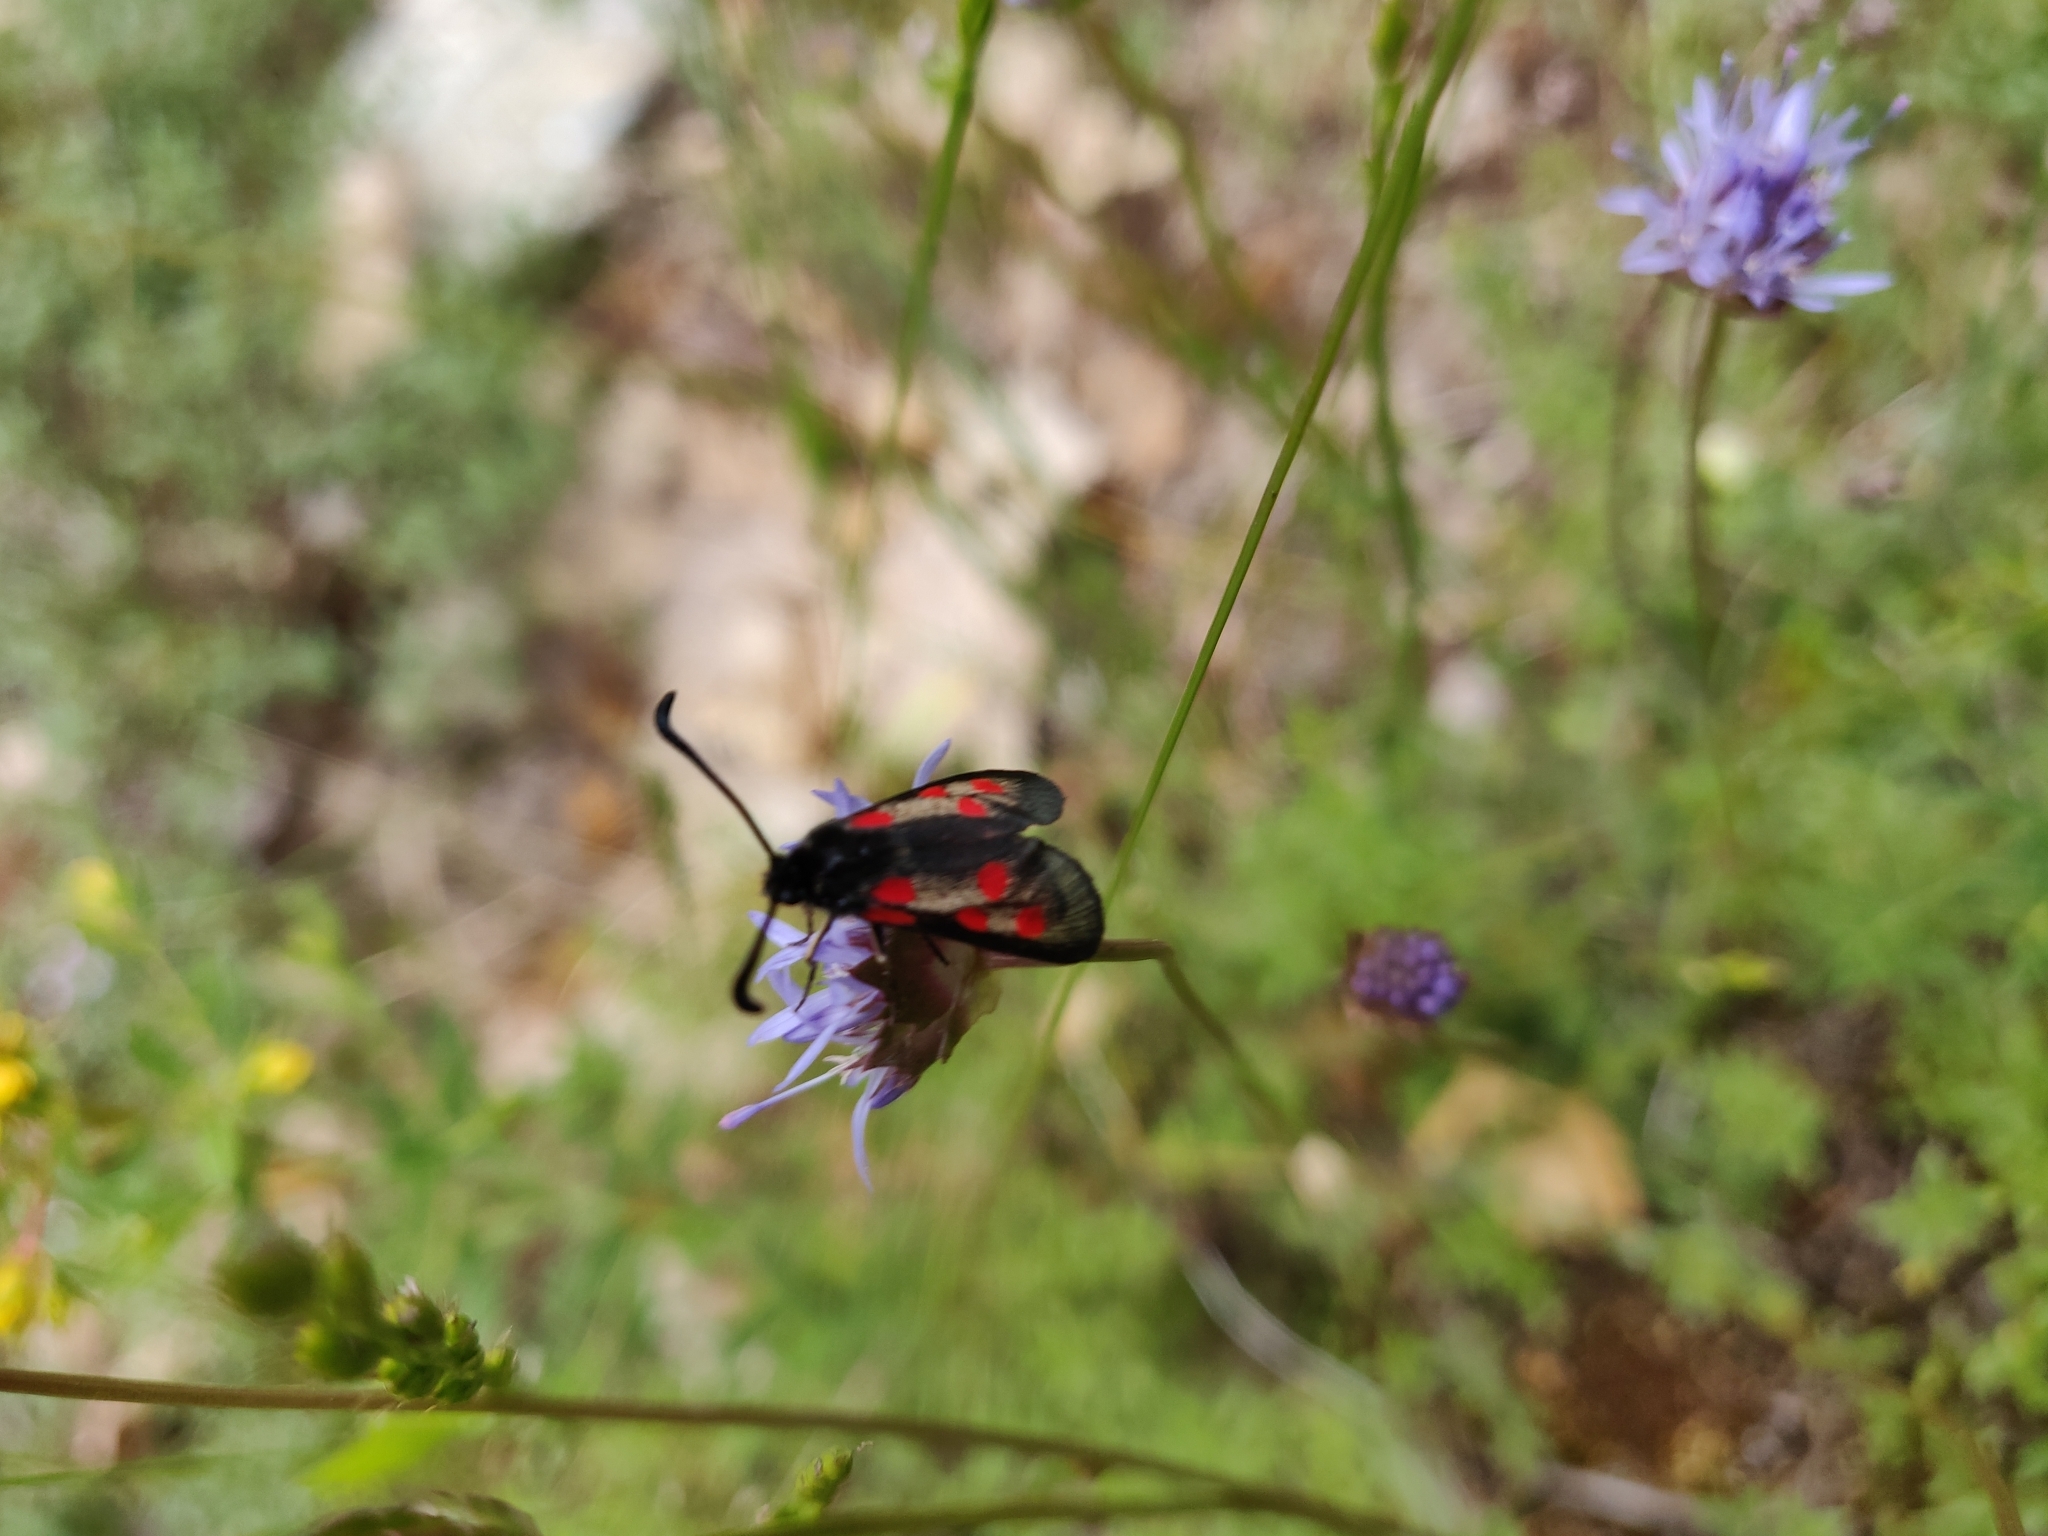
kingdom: Animalia
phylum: Arthropoda
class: Insecta
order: Lepidoptera
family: Zygaenidae
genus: Zygaena
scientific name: Zygaena corsica
